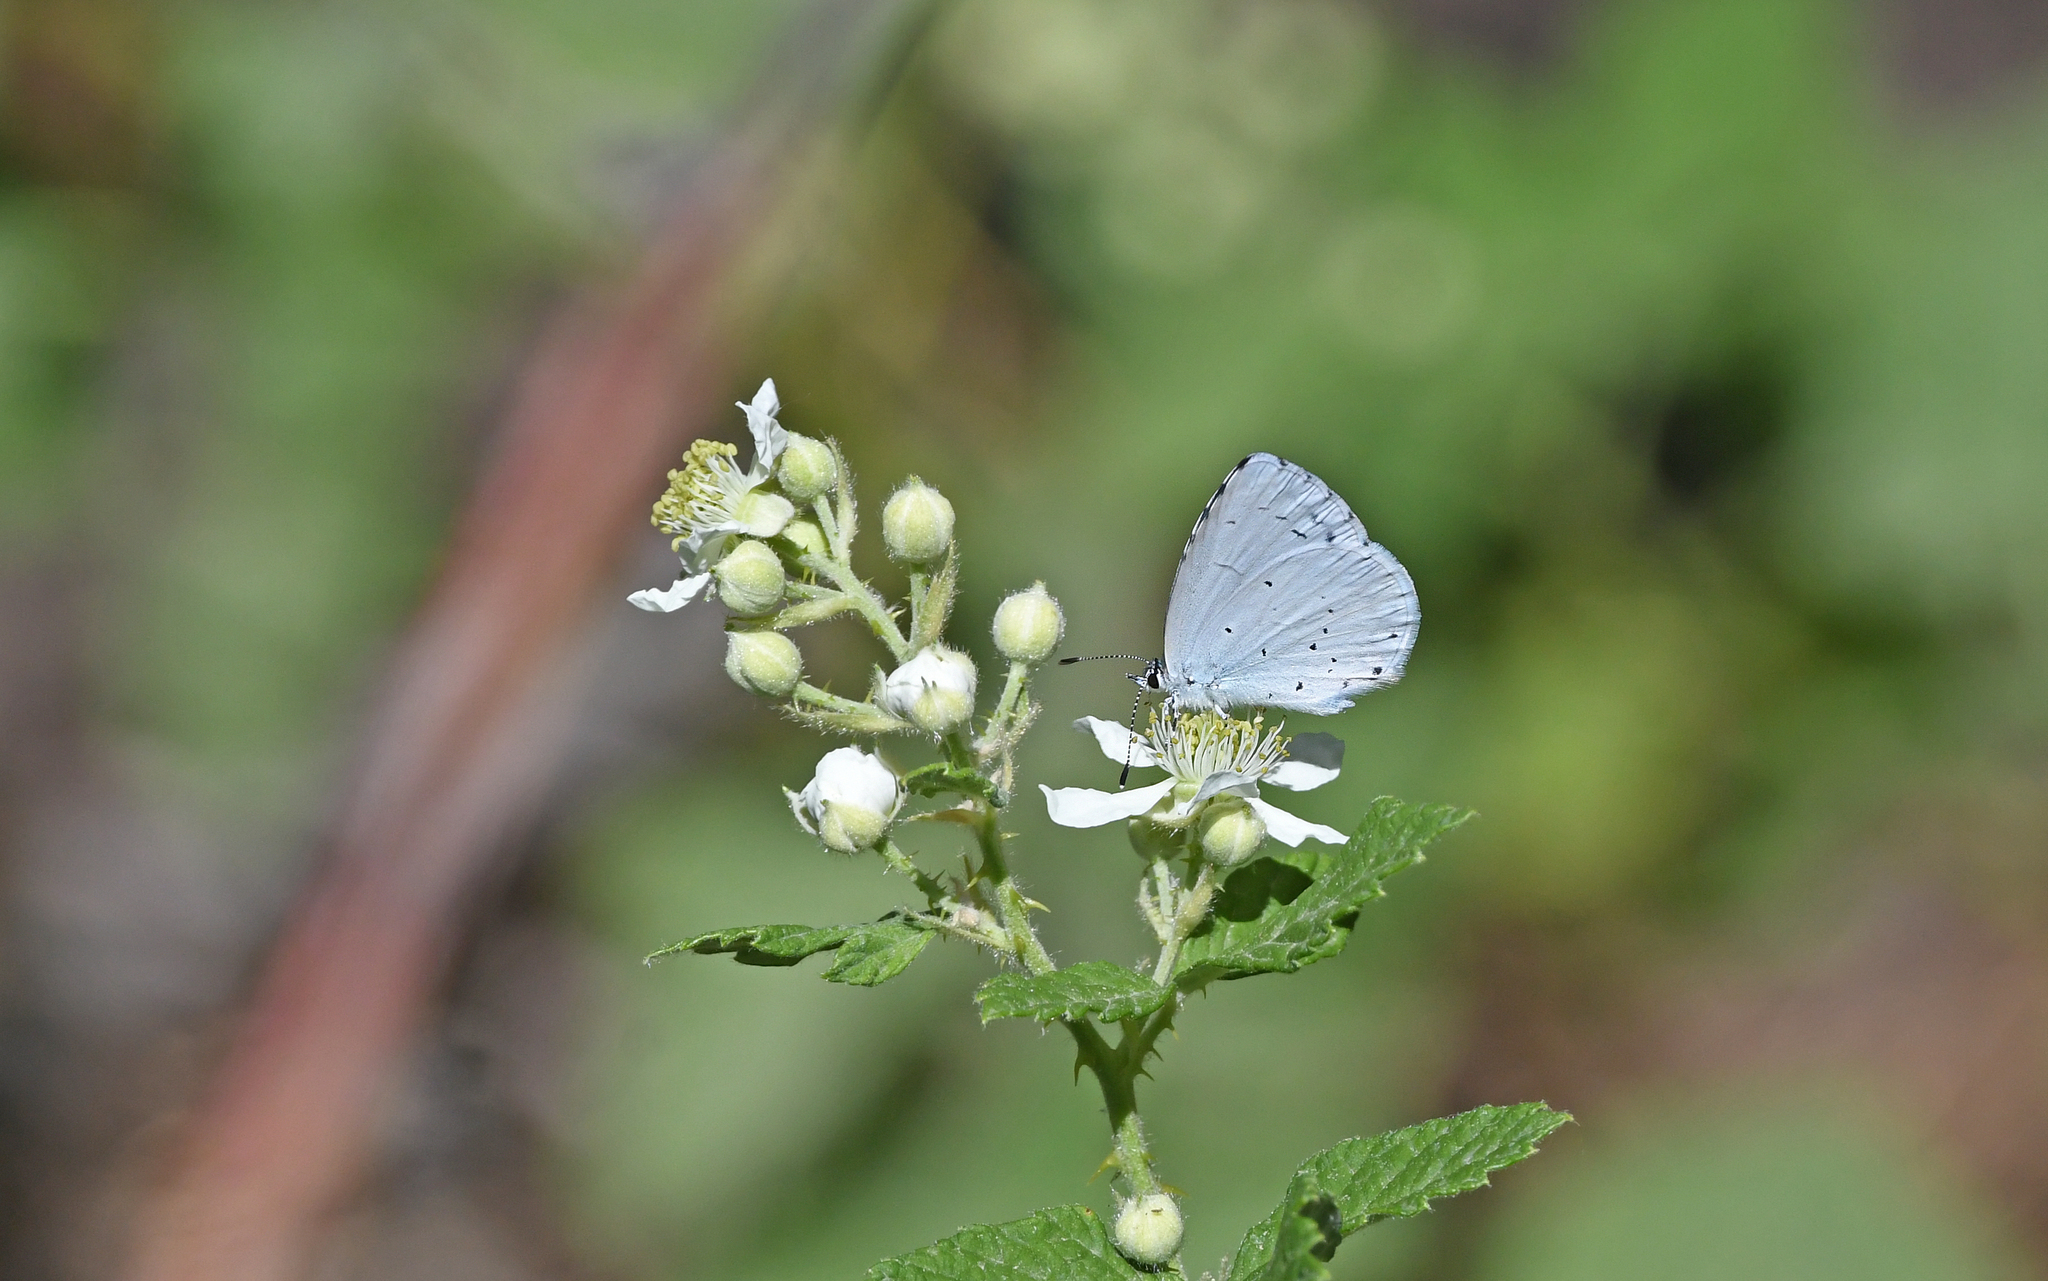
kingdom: Animalia
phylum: Arthropoda
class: Insecta
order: Lepidoptera
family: Lycaenidae
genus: Celastrina
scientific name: Celastrina argiolus
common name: Holly blue
